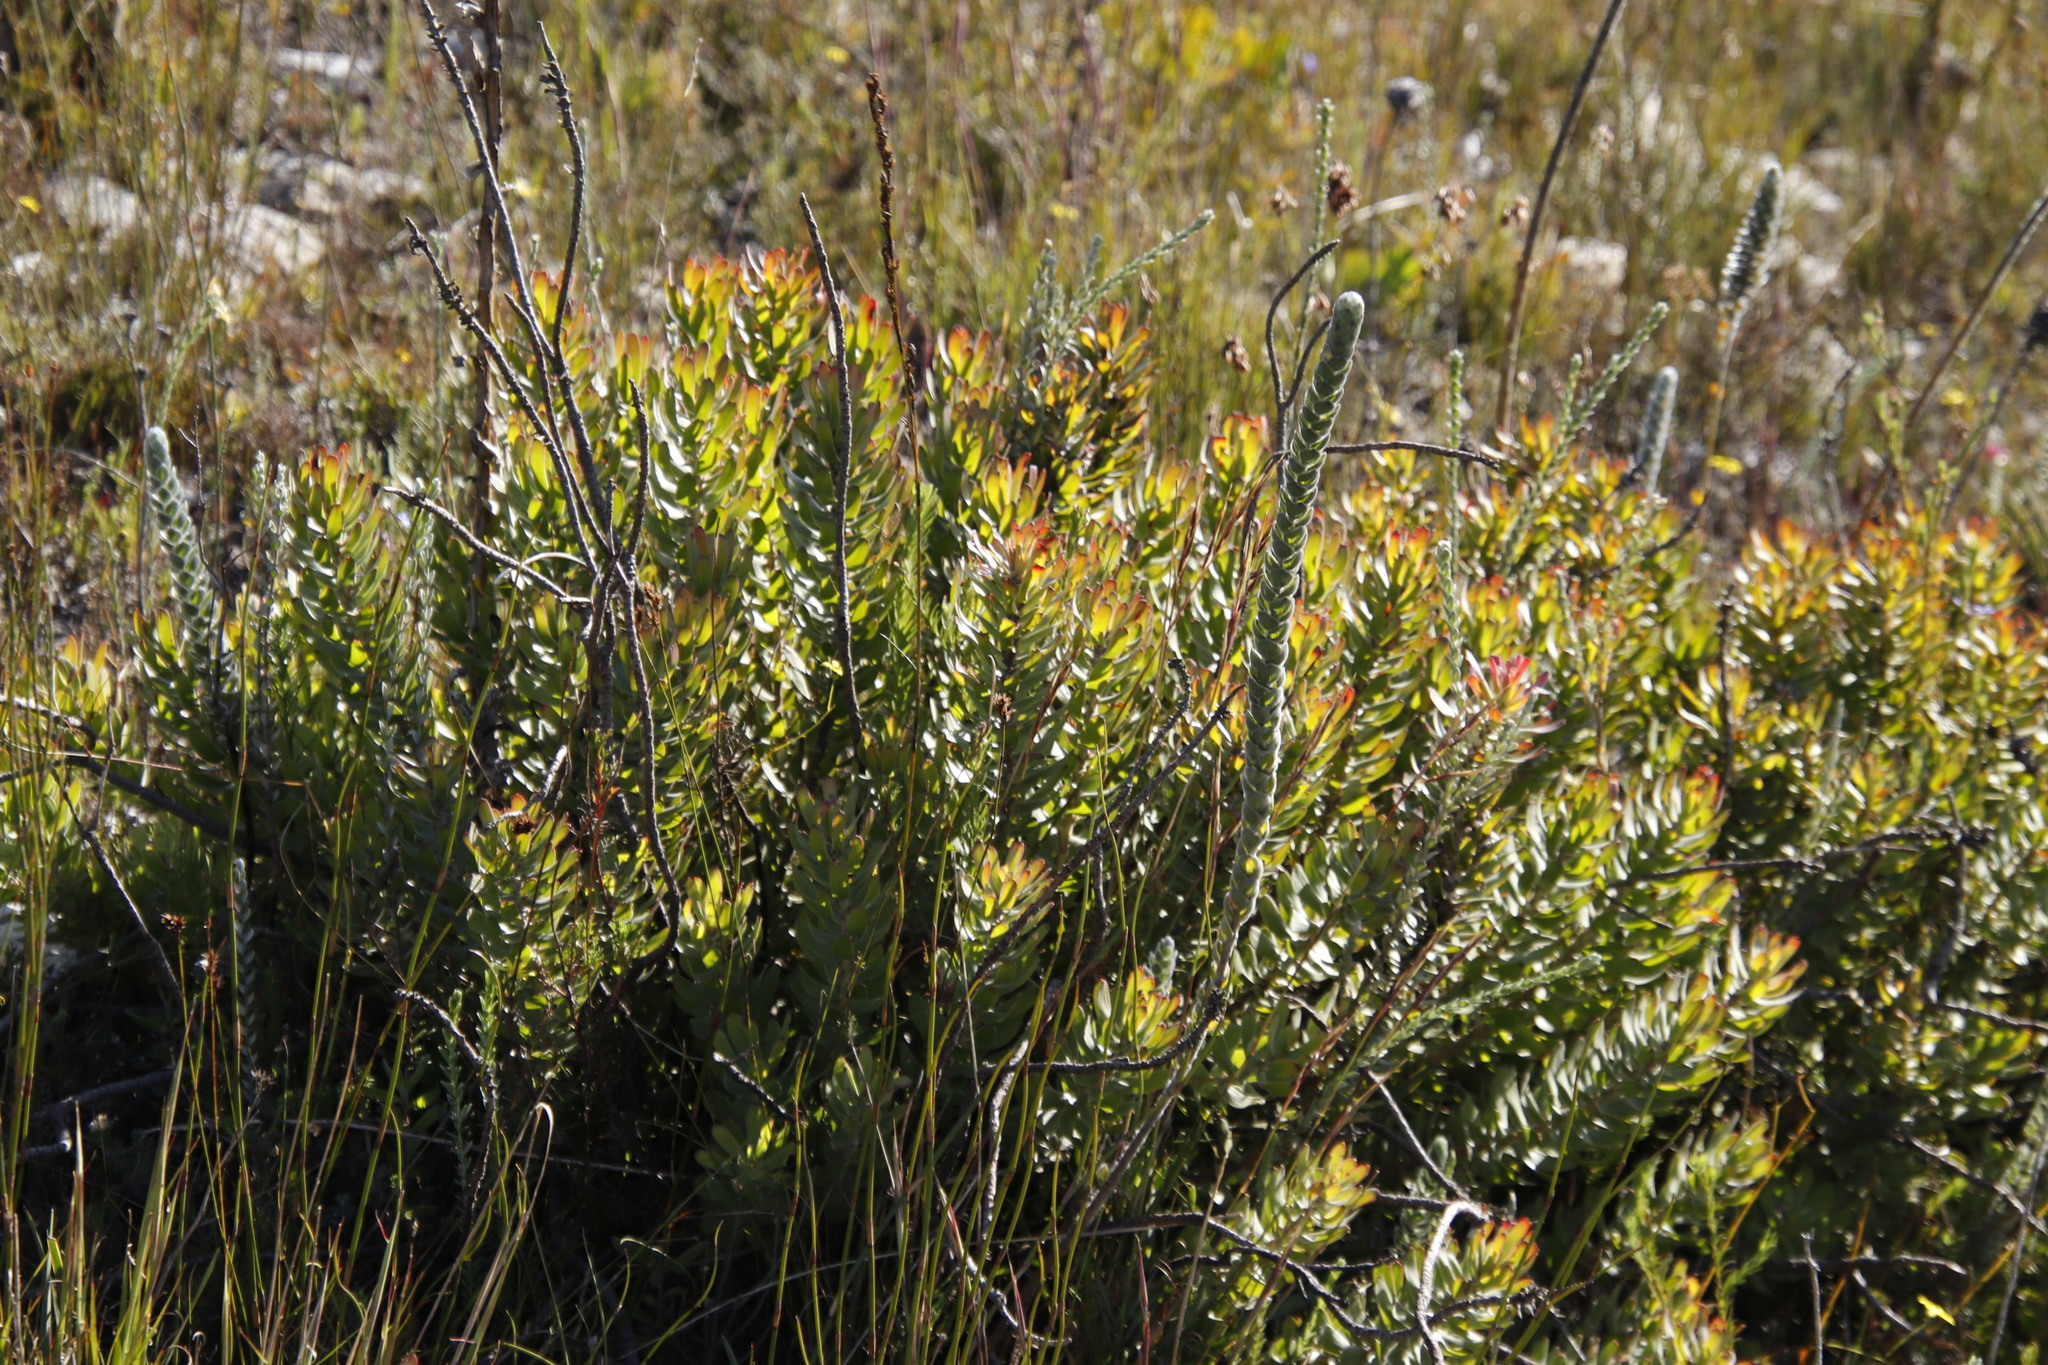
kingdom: Plantae
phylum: Tracheophyta
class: Magnoliopsida
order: Proteales
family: Proteaceae
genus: Mimetes
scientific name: Mimetes cucullatus
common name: Common pagoda
